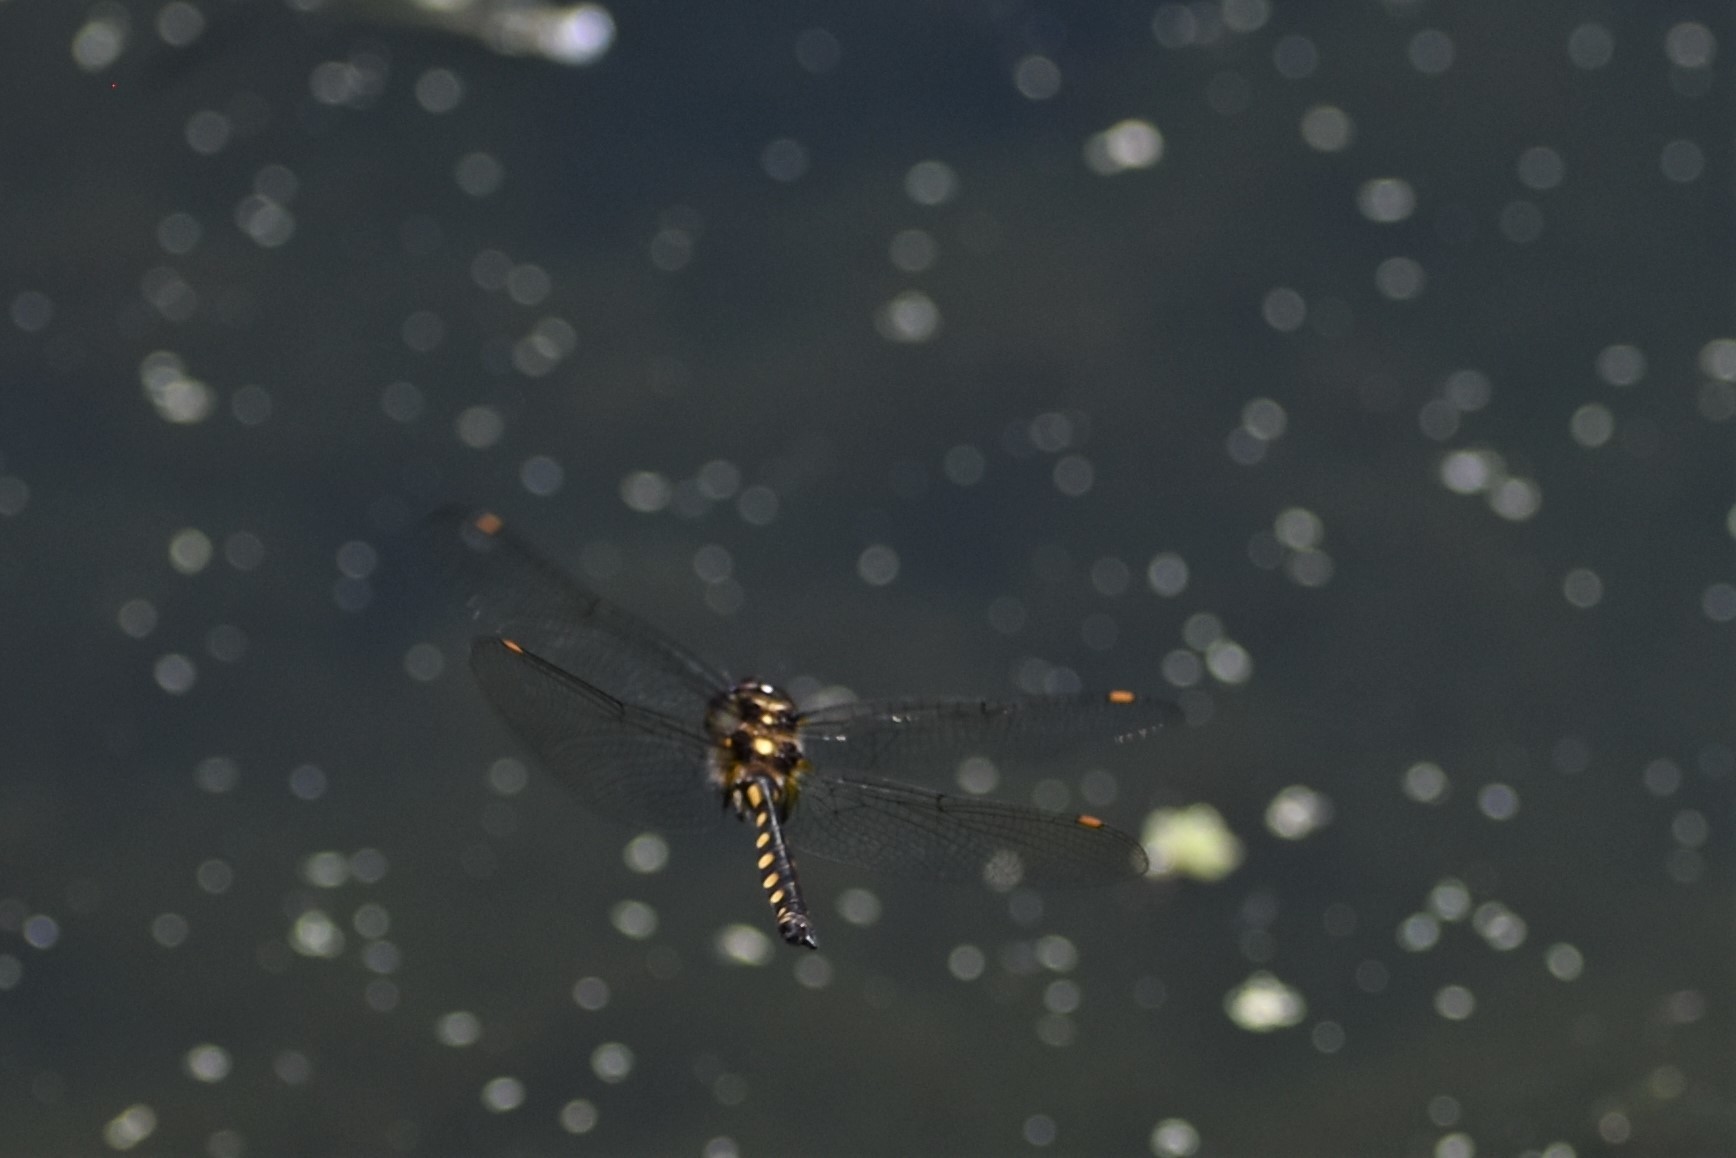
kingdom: Animalia
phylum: Arthropoda
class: Insecta
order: Odonata
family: Corduliidae
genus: Procordulia
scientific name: Procordulia grayi
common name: Yellow spotted dragonfly
